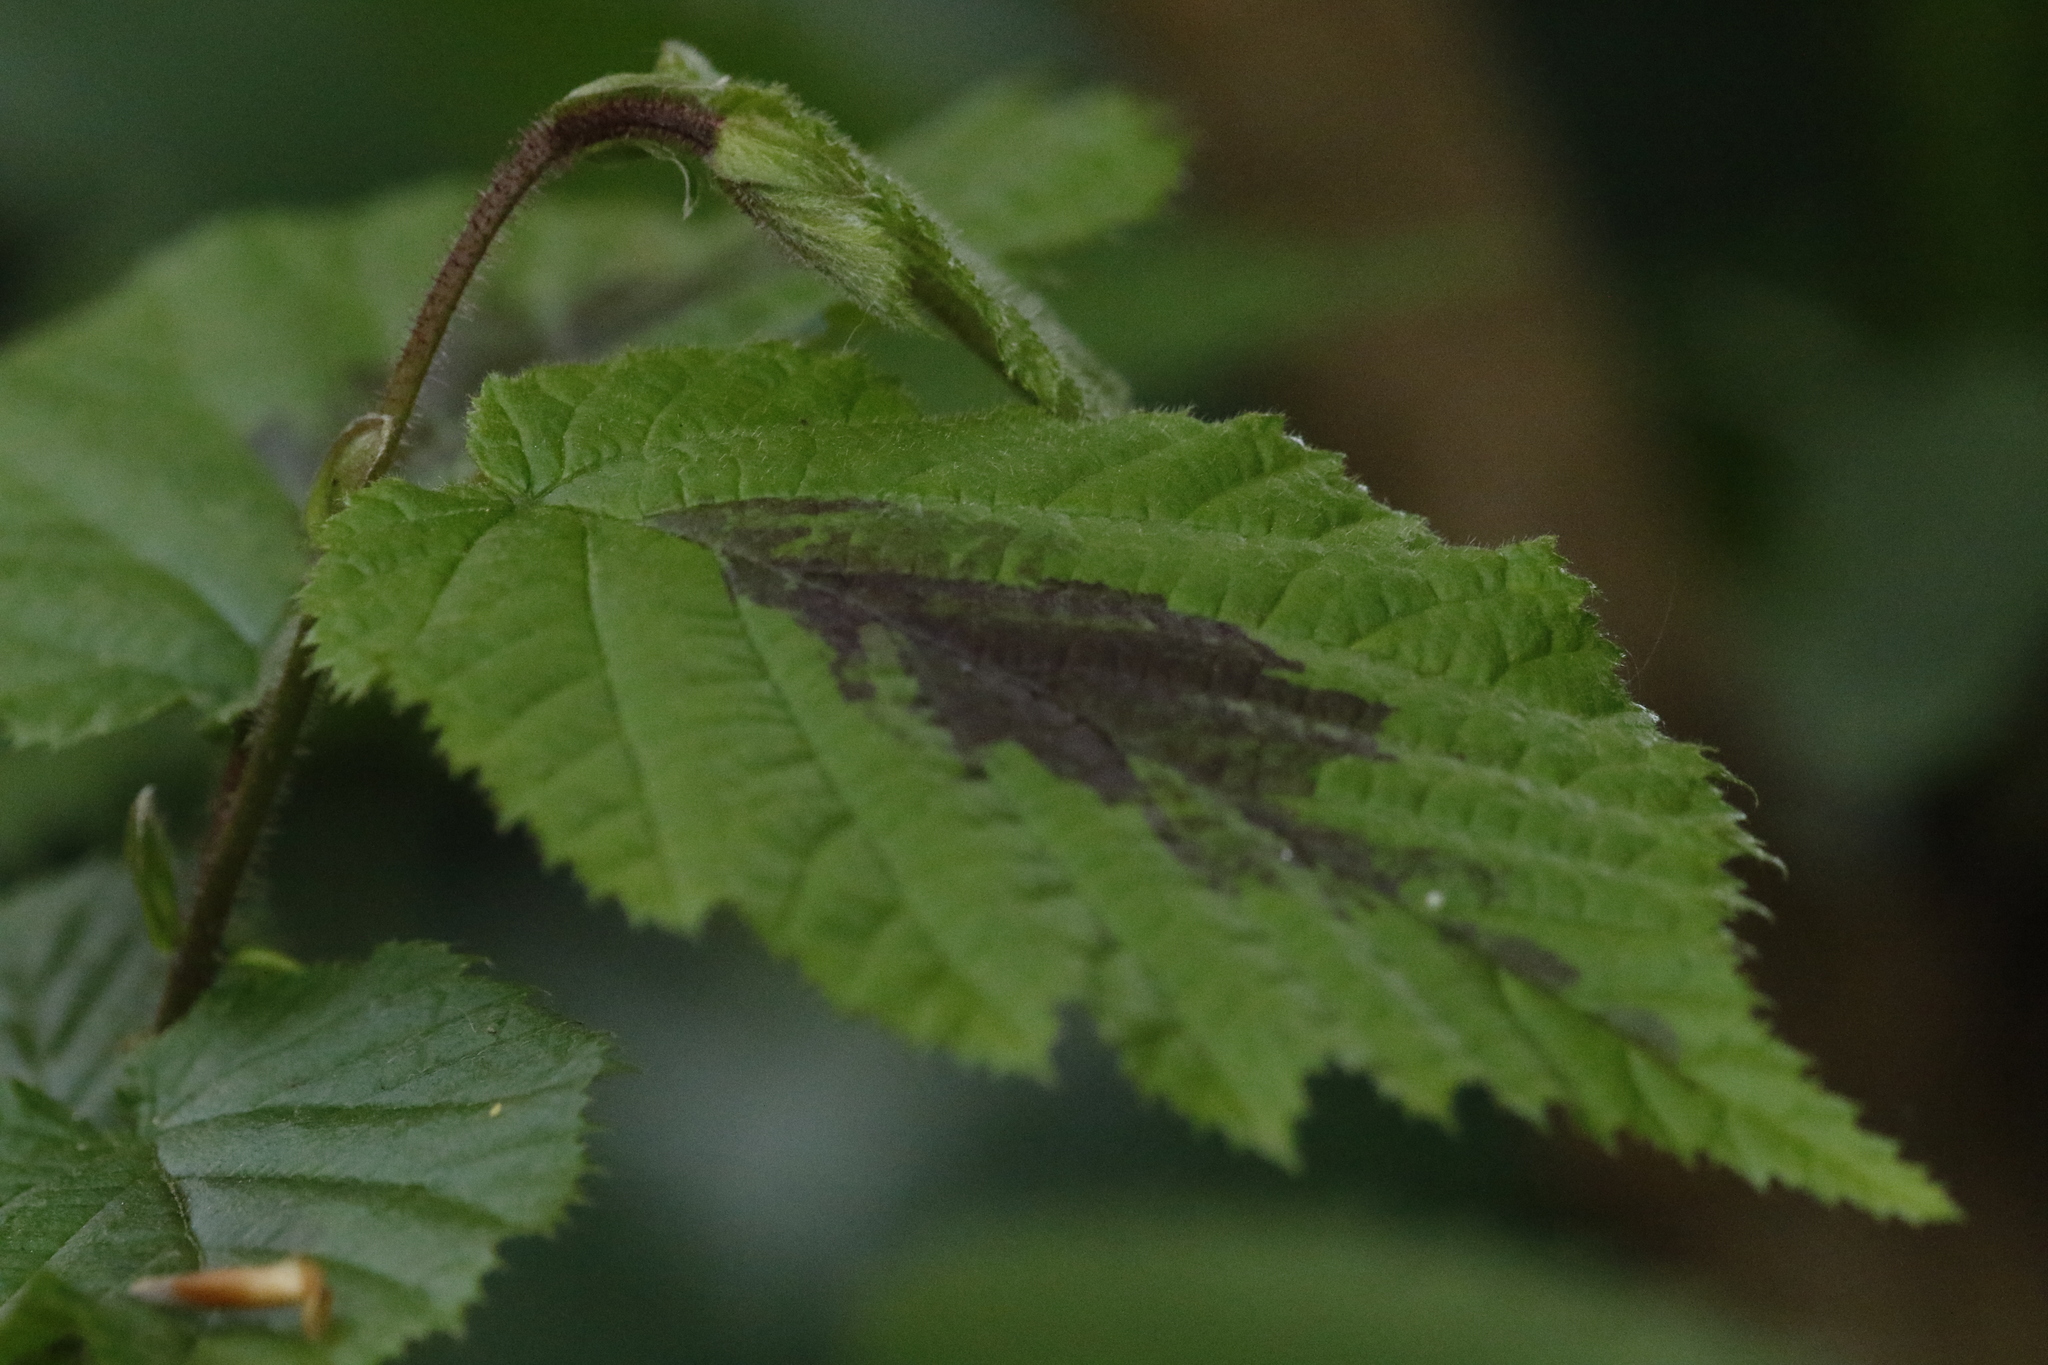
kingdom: Plantae
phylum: Tracheophyta
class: Magnoliopsida
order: Fagales
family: Betulaceae
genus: Corylus
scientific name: Corylus avellana
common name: European hazel
